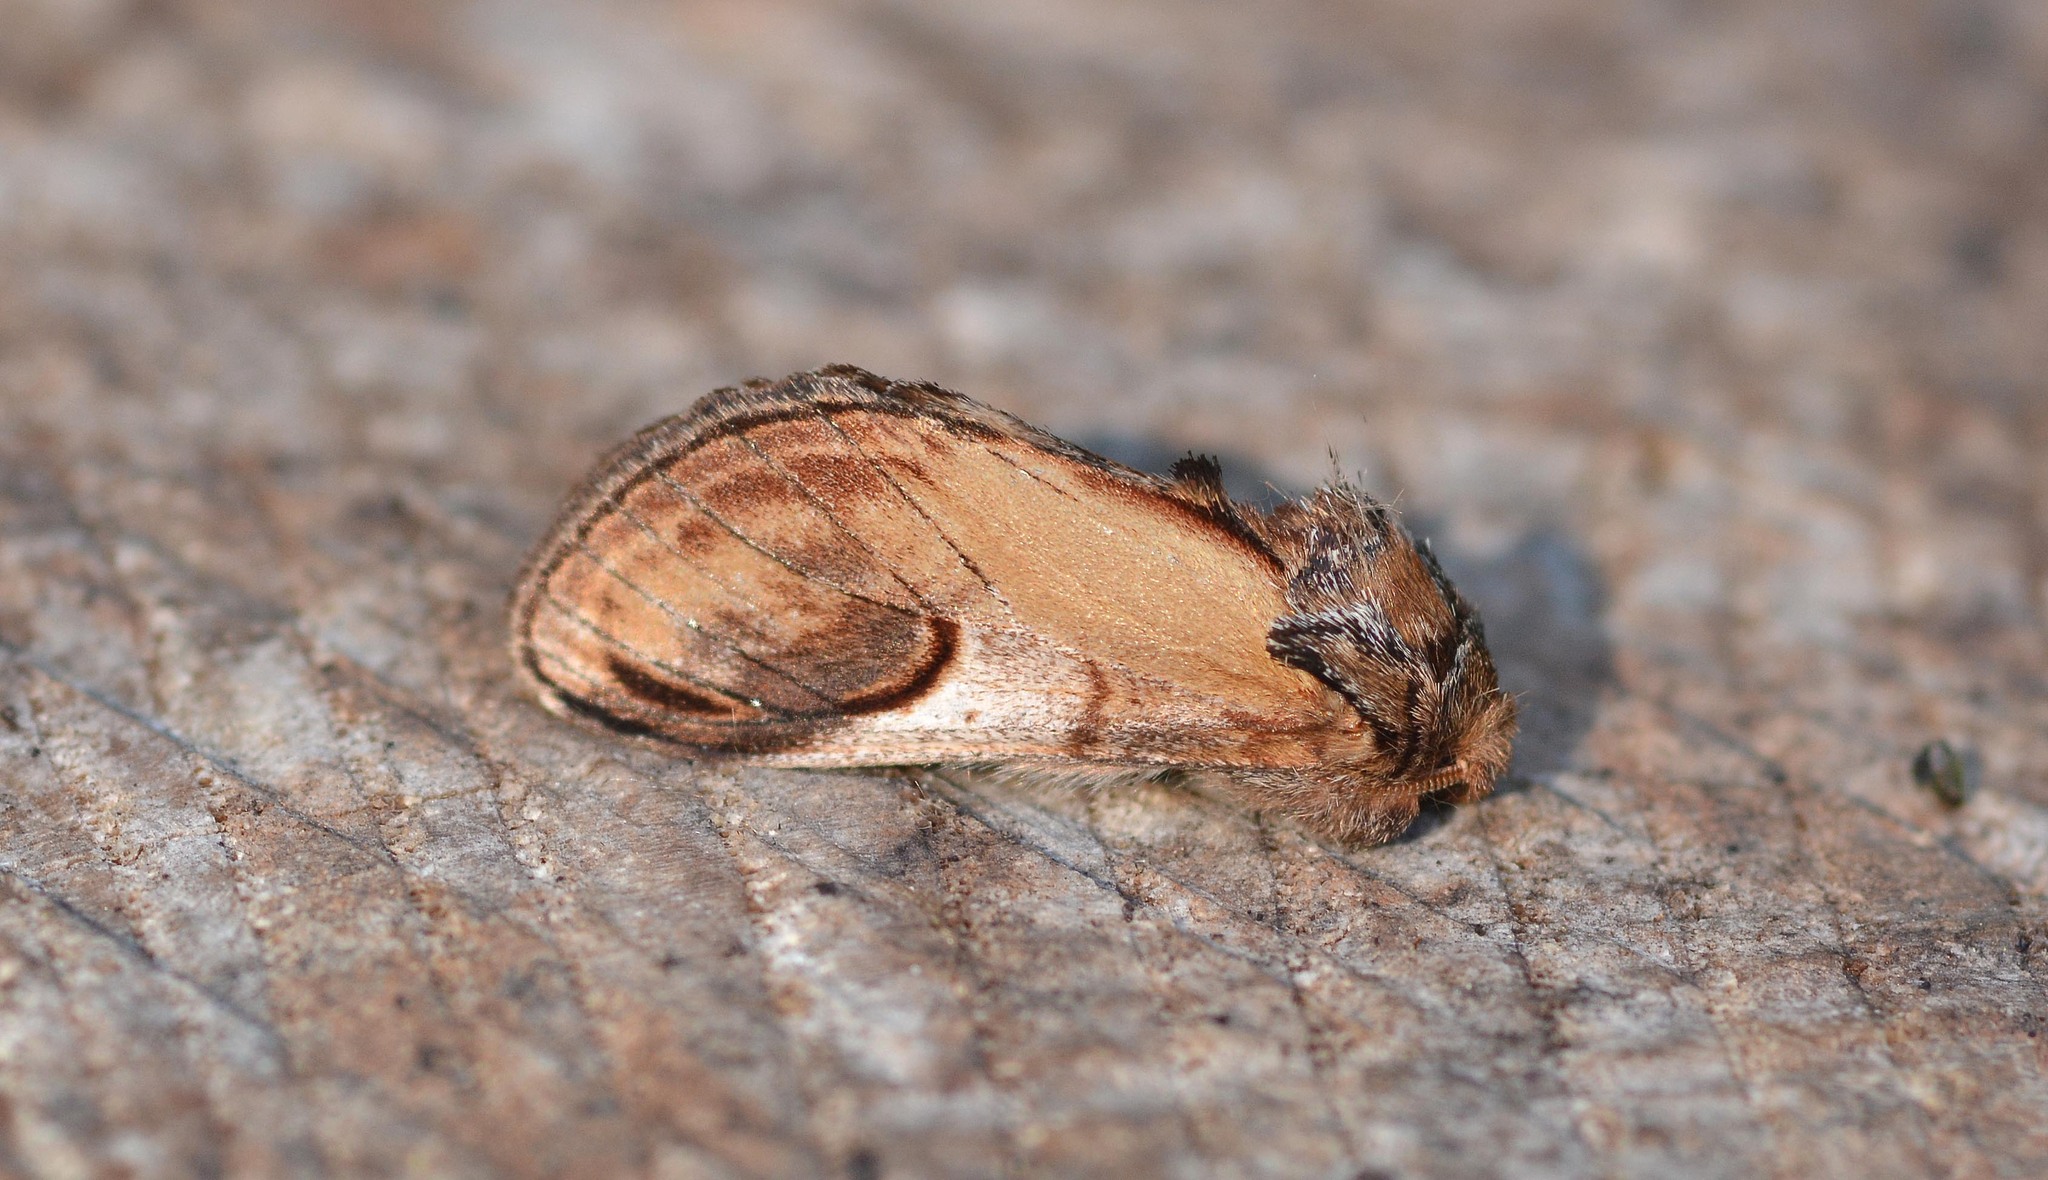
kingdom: Animalia
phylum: Arthropoda
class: Insecta
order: Lepidoptera
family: Notodontidae
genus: Notodonta
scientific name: Notodonta ziczac
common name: Pebble prominent
